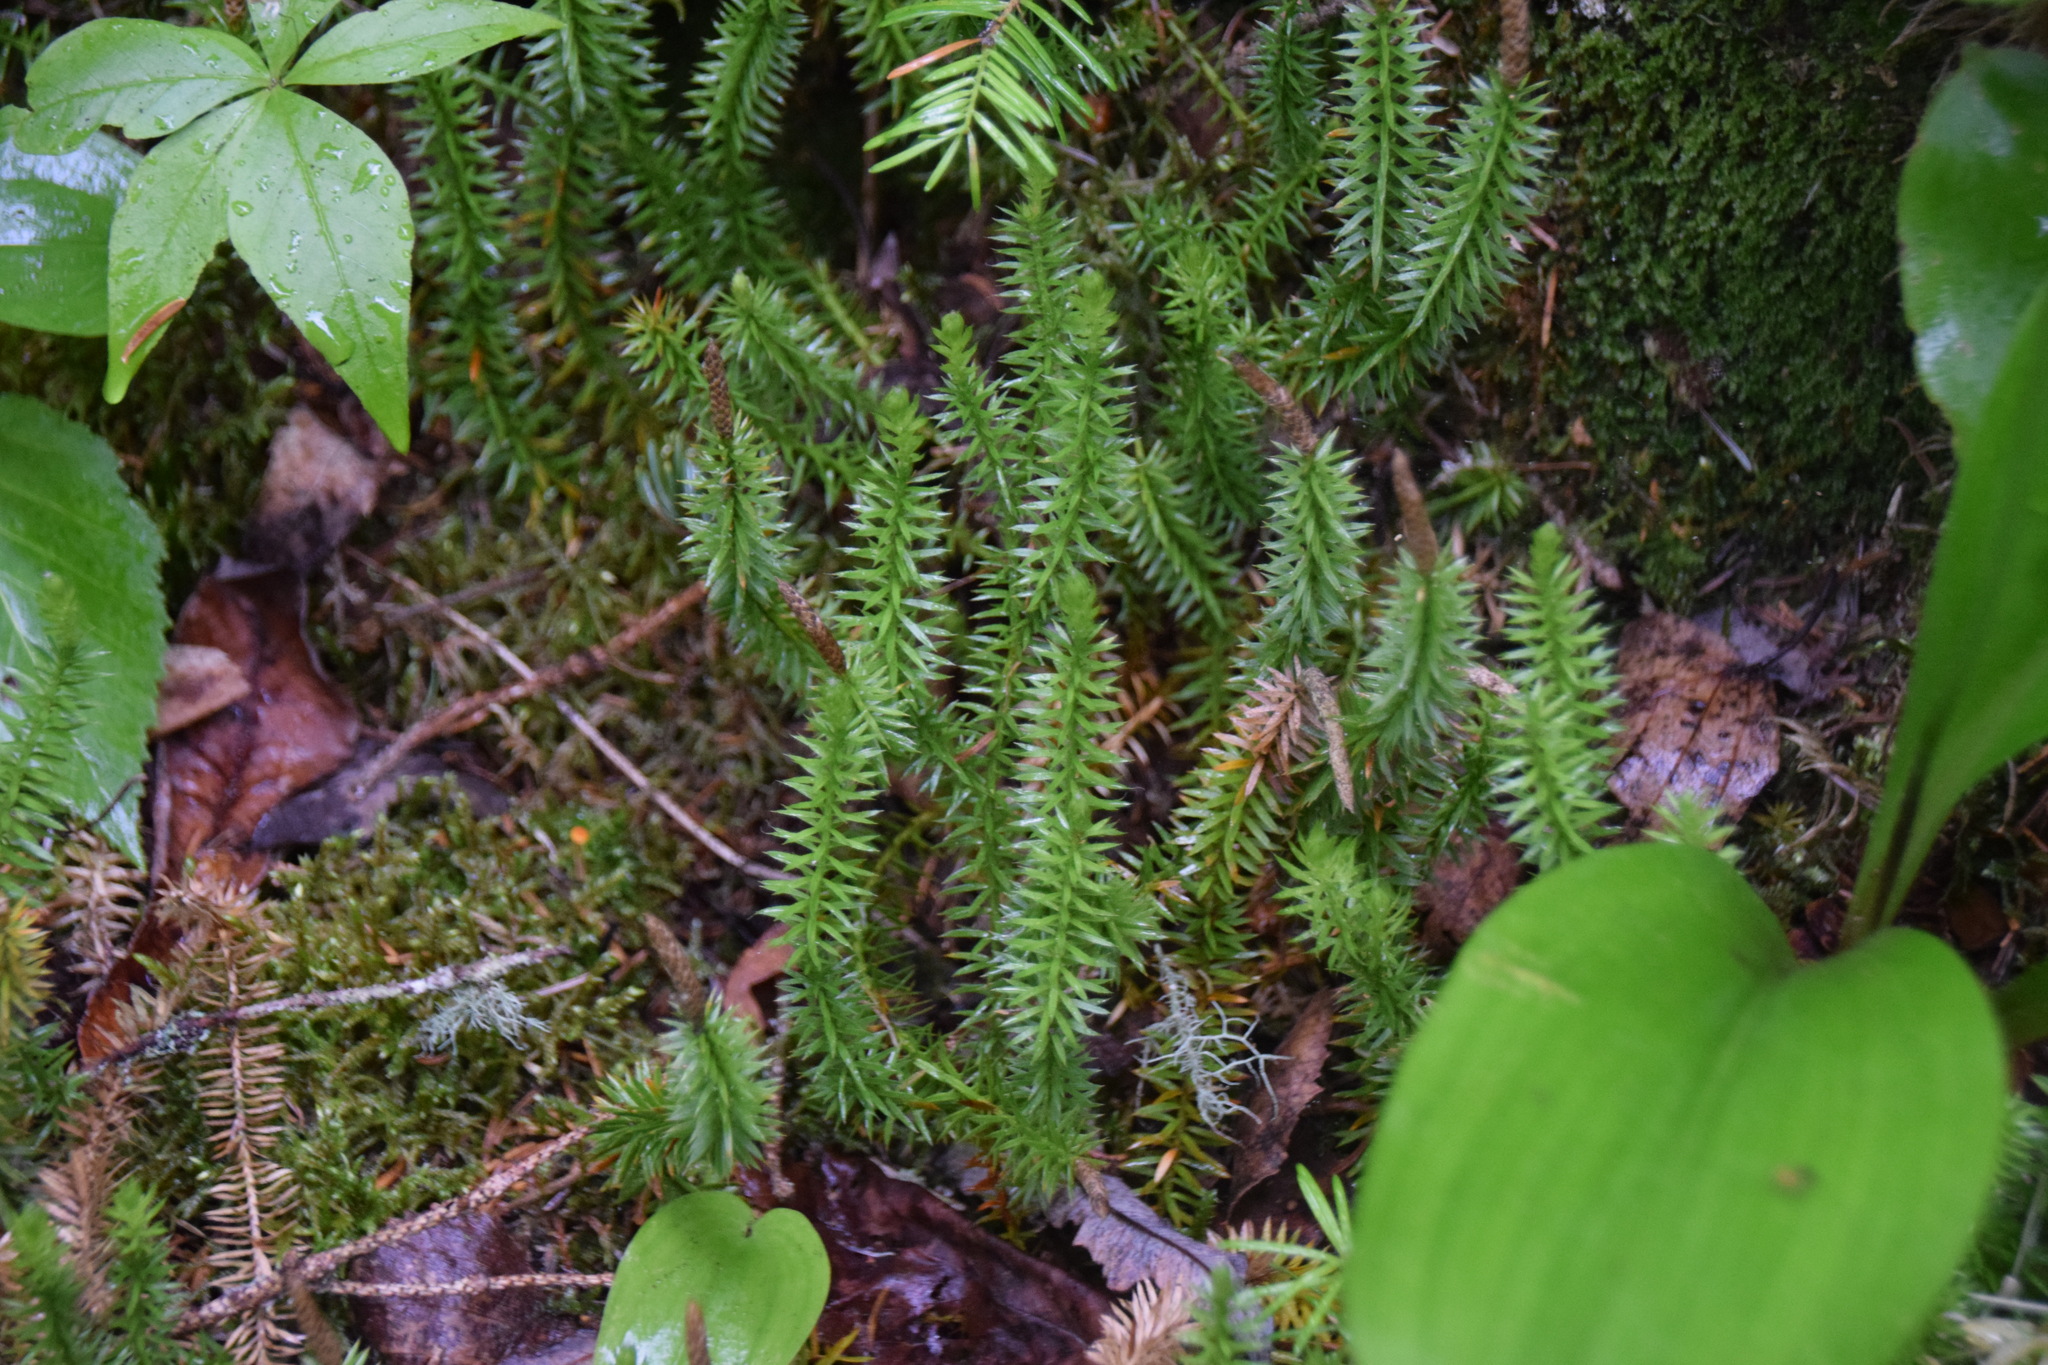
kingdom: Plantae
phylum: Tracheophyta
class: Lycopodiopsida
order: Lycopodiales
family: Lycopodiaceae
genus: Spinulum
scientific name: Spinulum annotinum
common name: Interrupted club-moss
